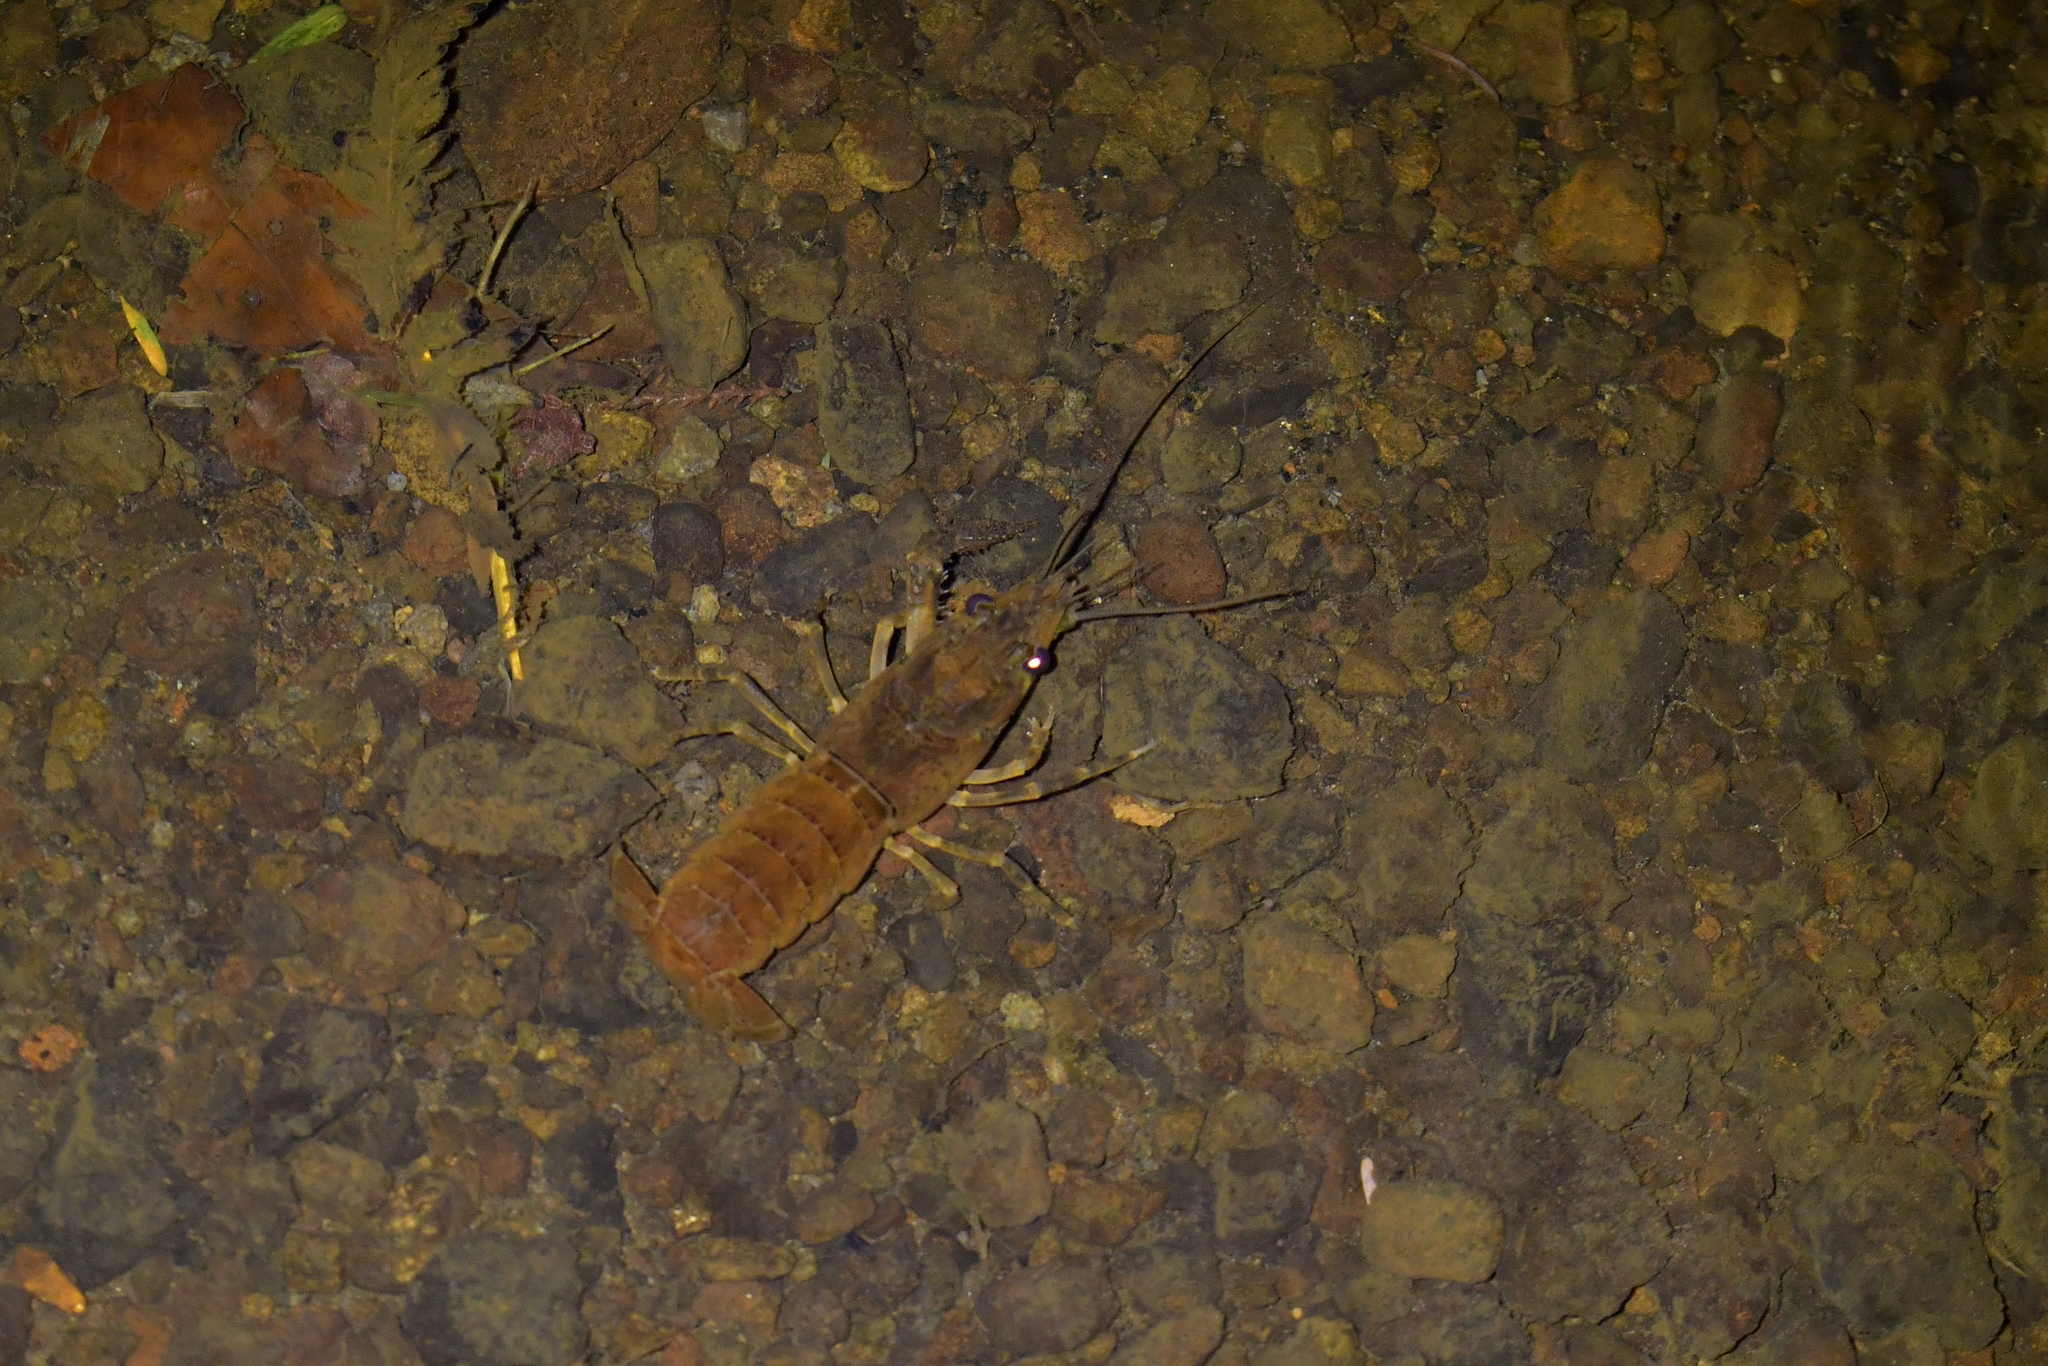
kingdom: Animalia
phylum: Arthropoda
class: Malacostraca
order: Decapoda
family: Parastacidae
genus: Paranephrops
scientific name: Paranephrops planifrons
